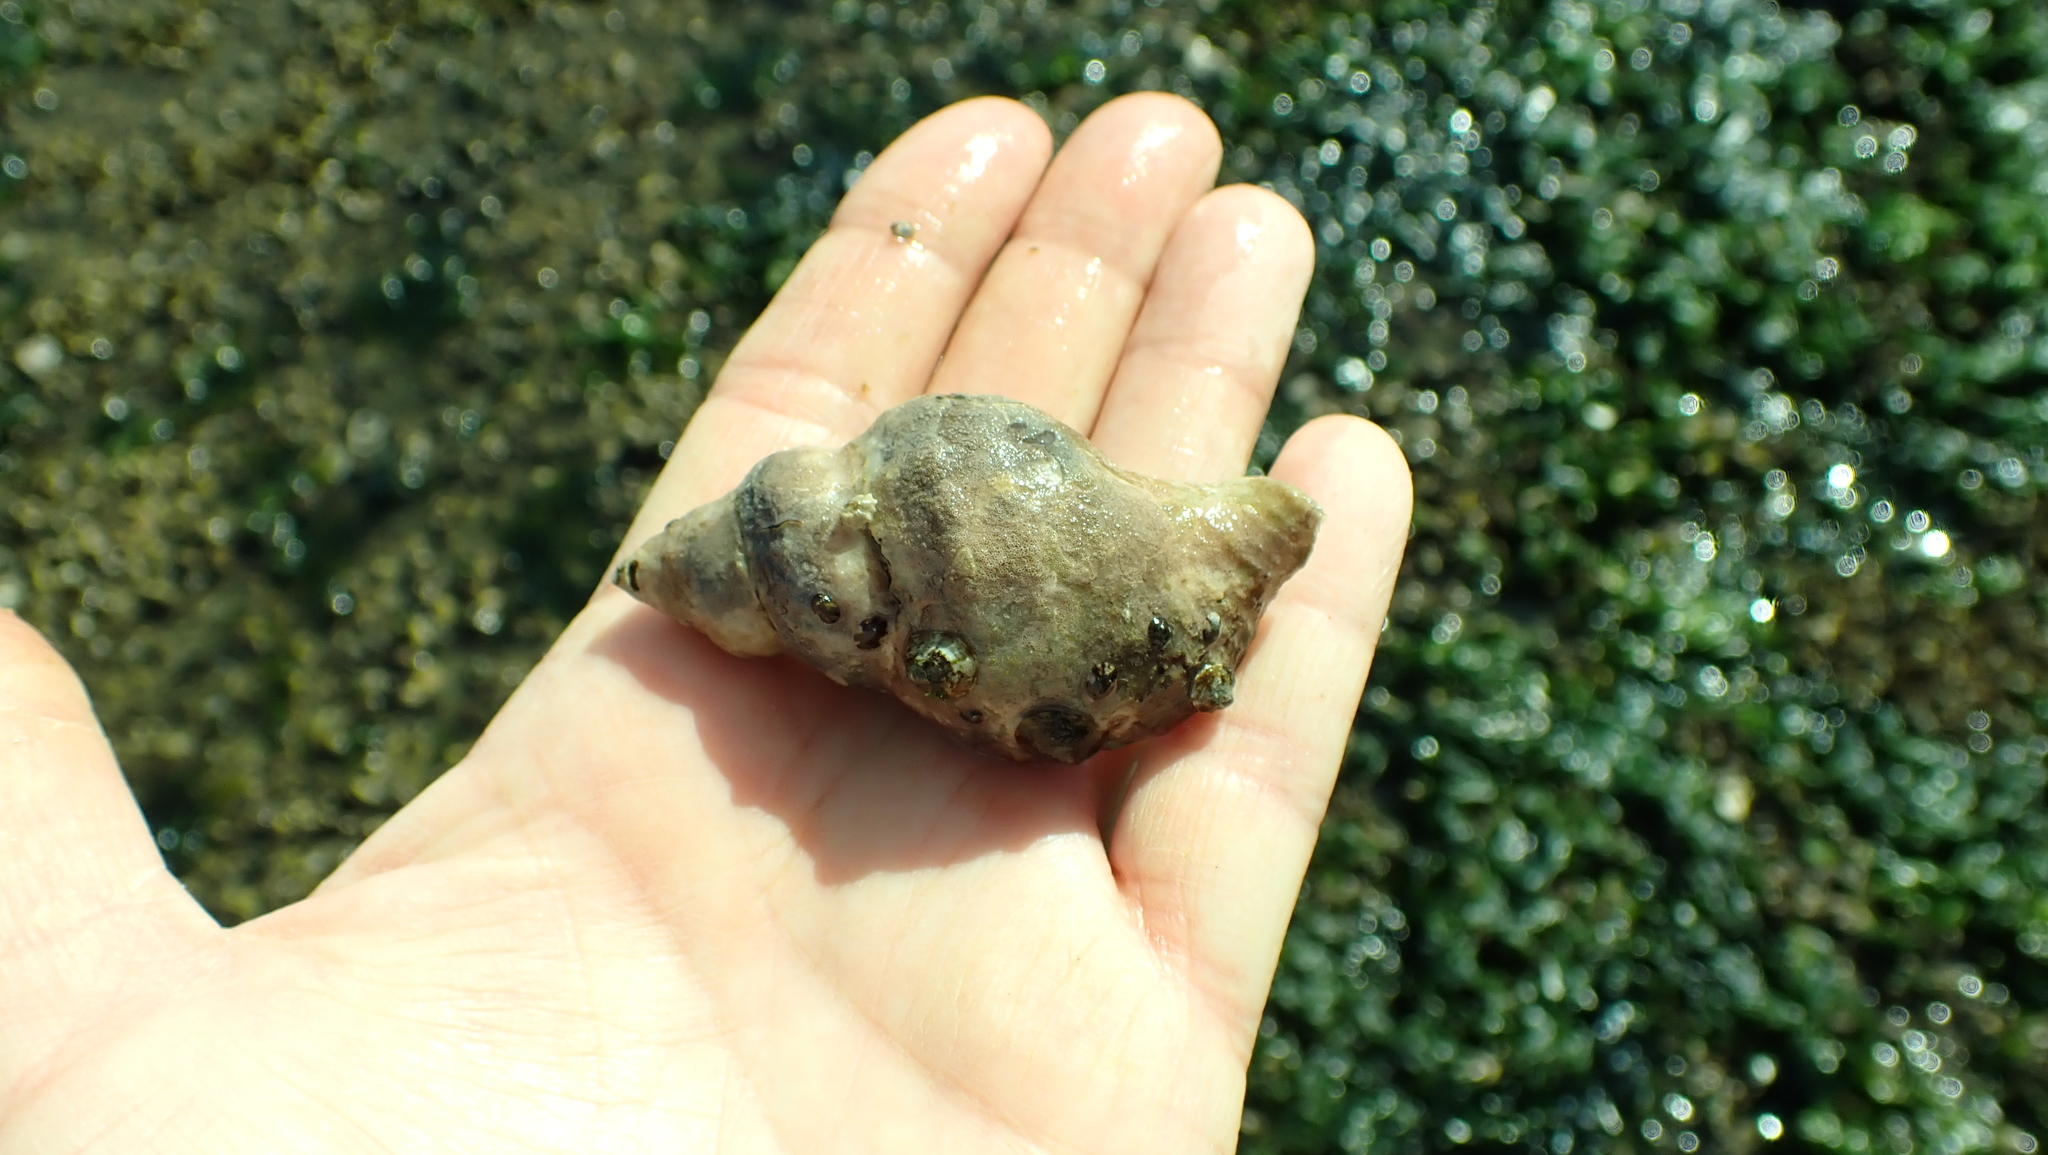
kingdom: Animalia
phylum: Mollusca
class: Gastropoda
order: Neogastropoda
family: Muricidae
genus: Nucella
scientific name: Nucella lamellosa
